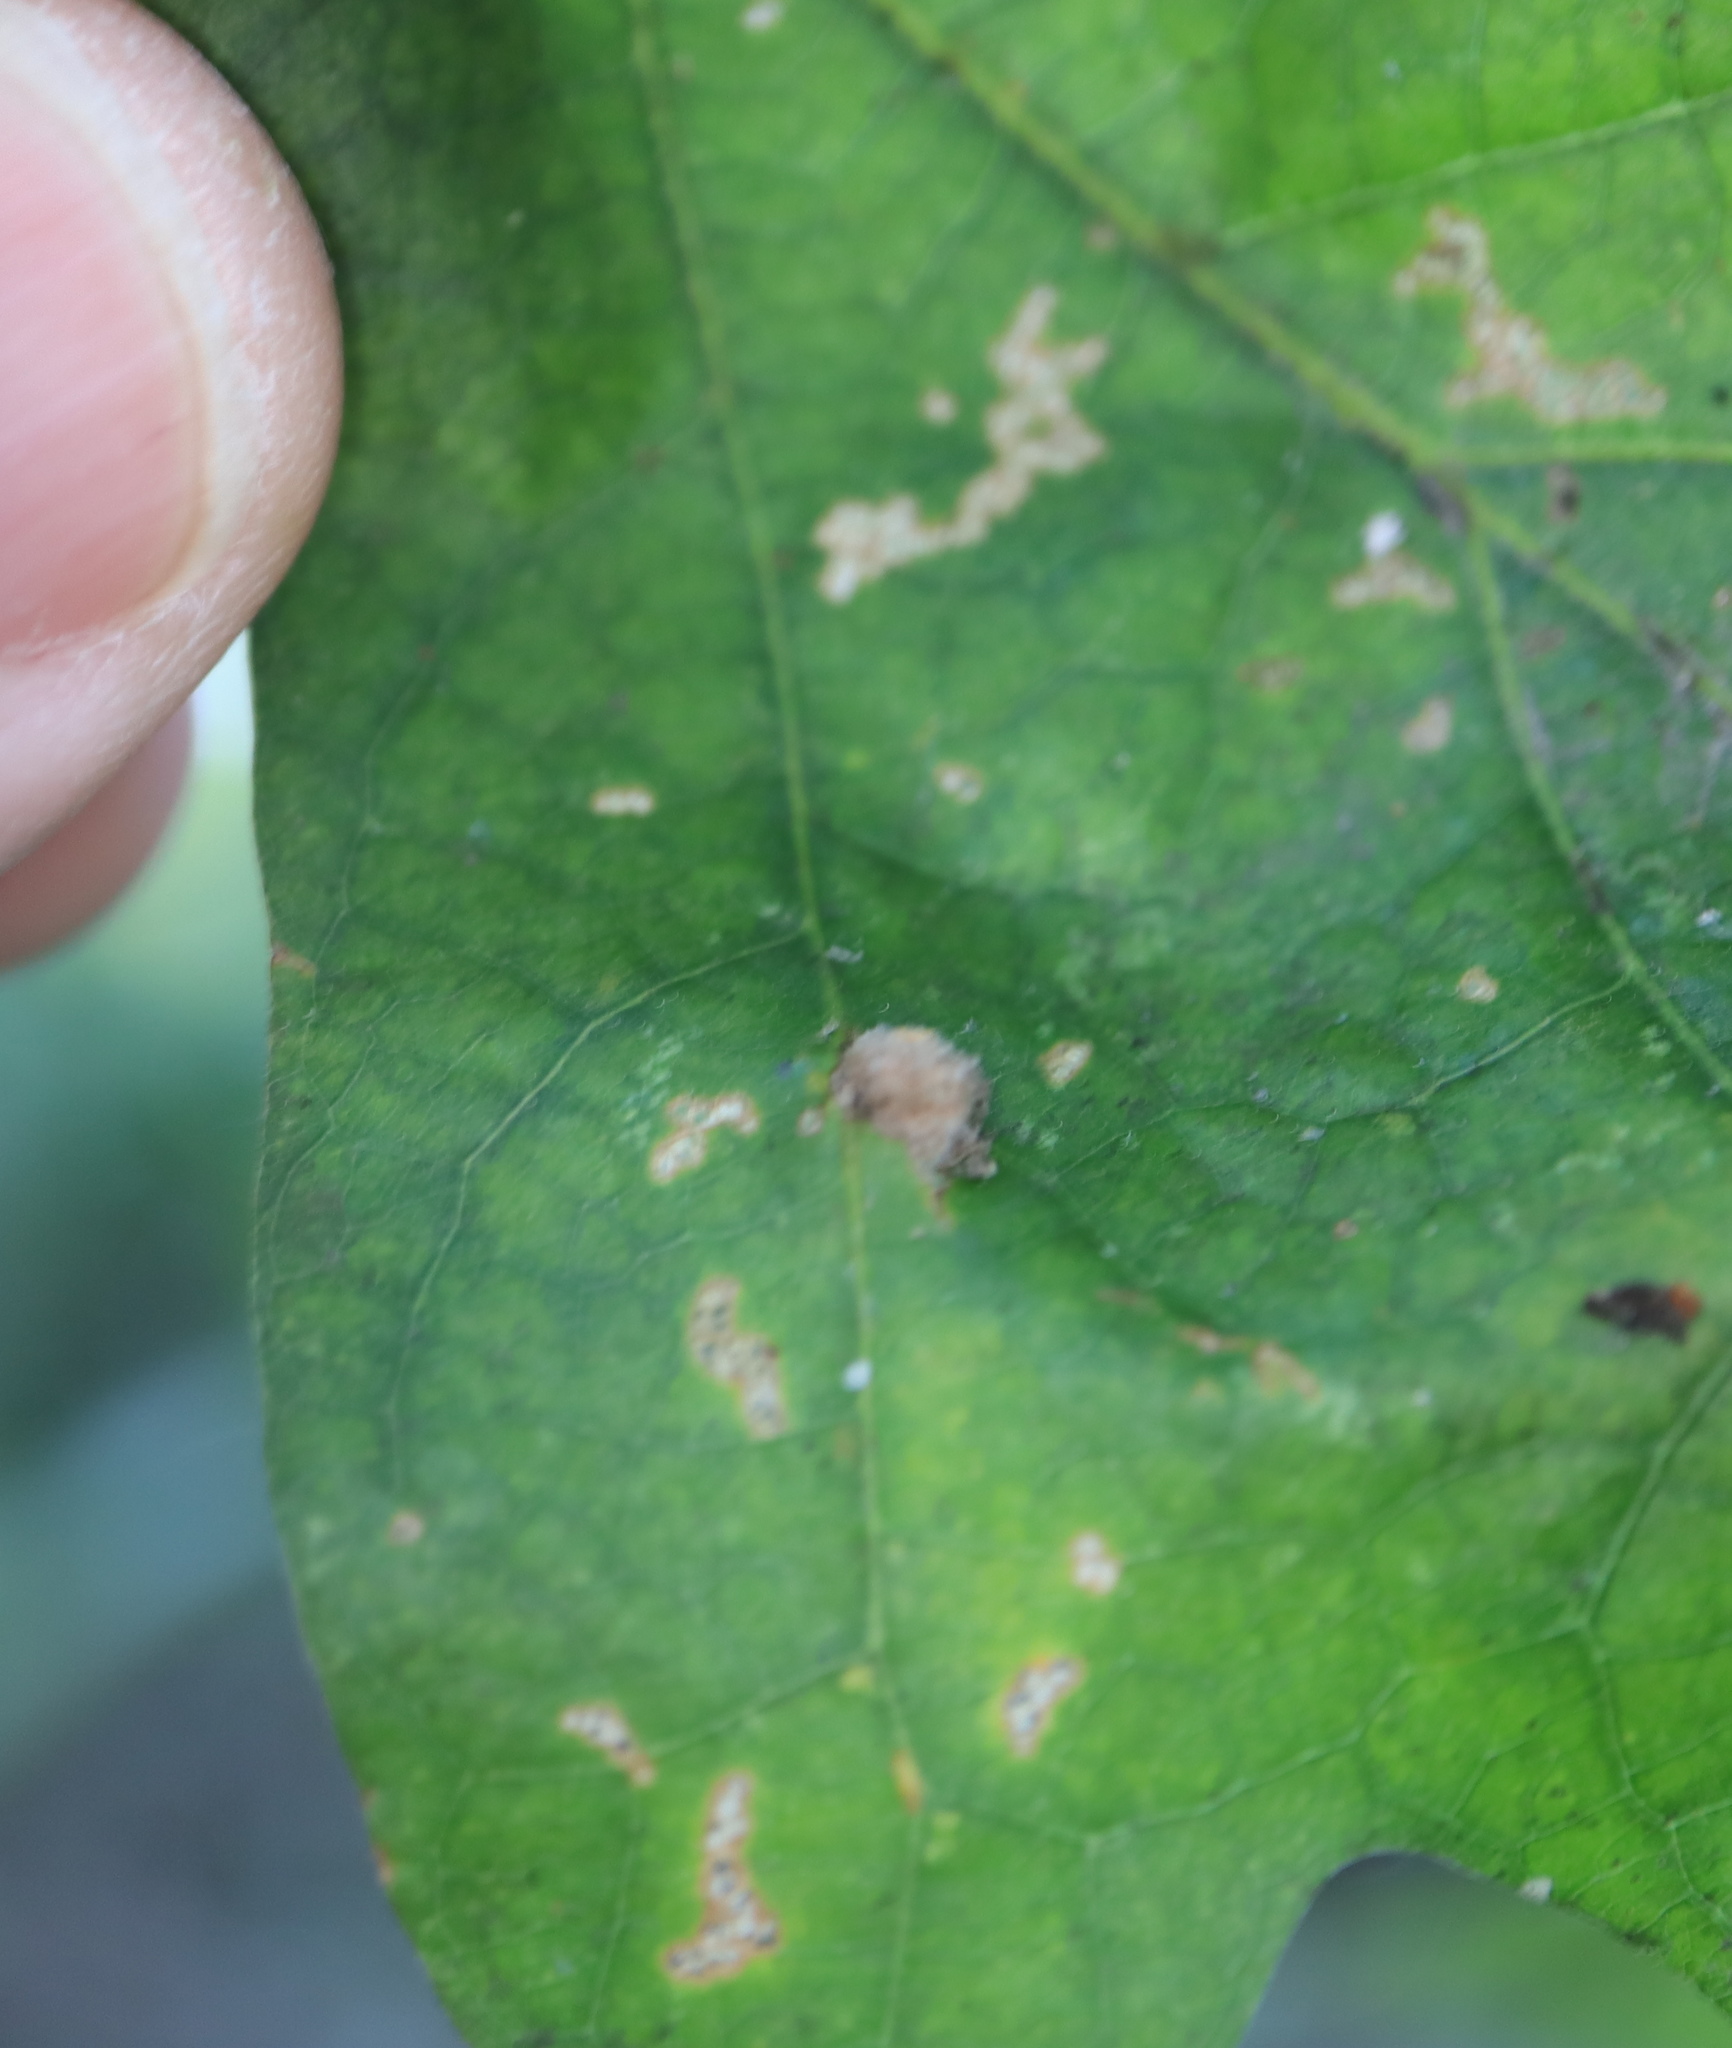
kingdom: Animalia
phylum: Arthropoda
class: Insecta
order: Hymenoptera
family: Cynipidae
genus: Philonix
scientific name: Philonix fulvicollis
